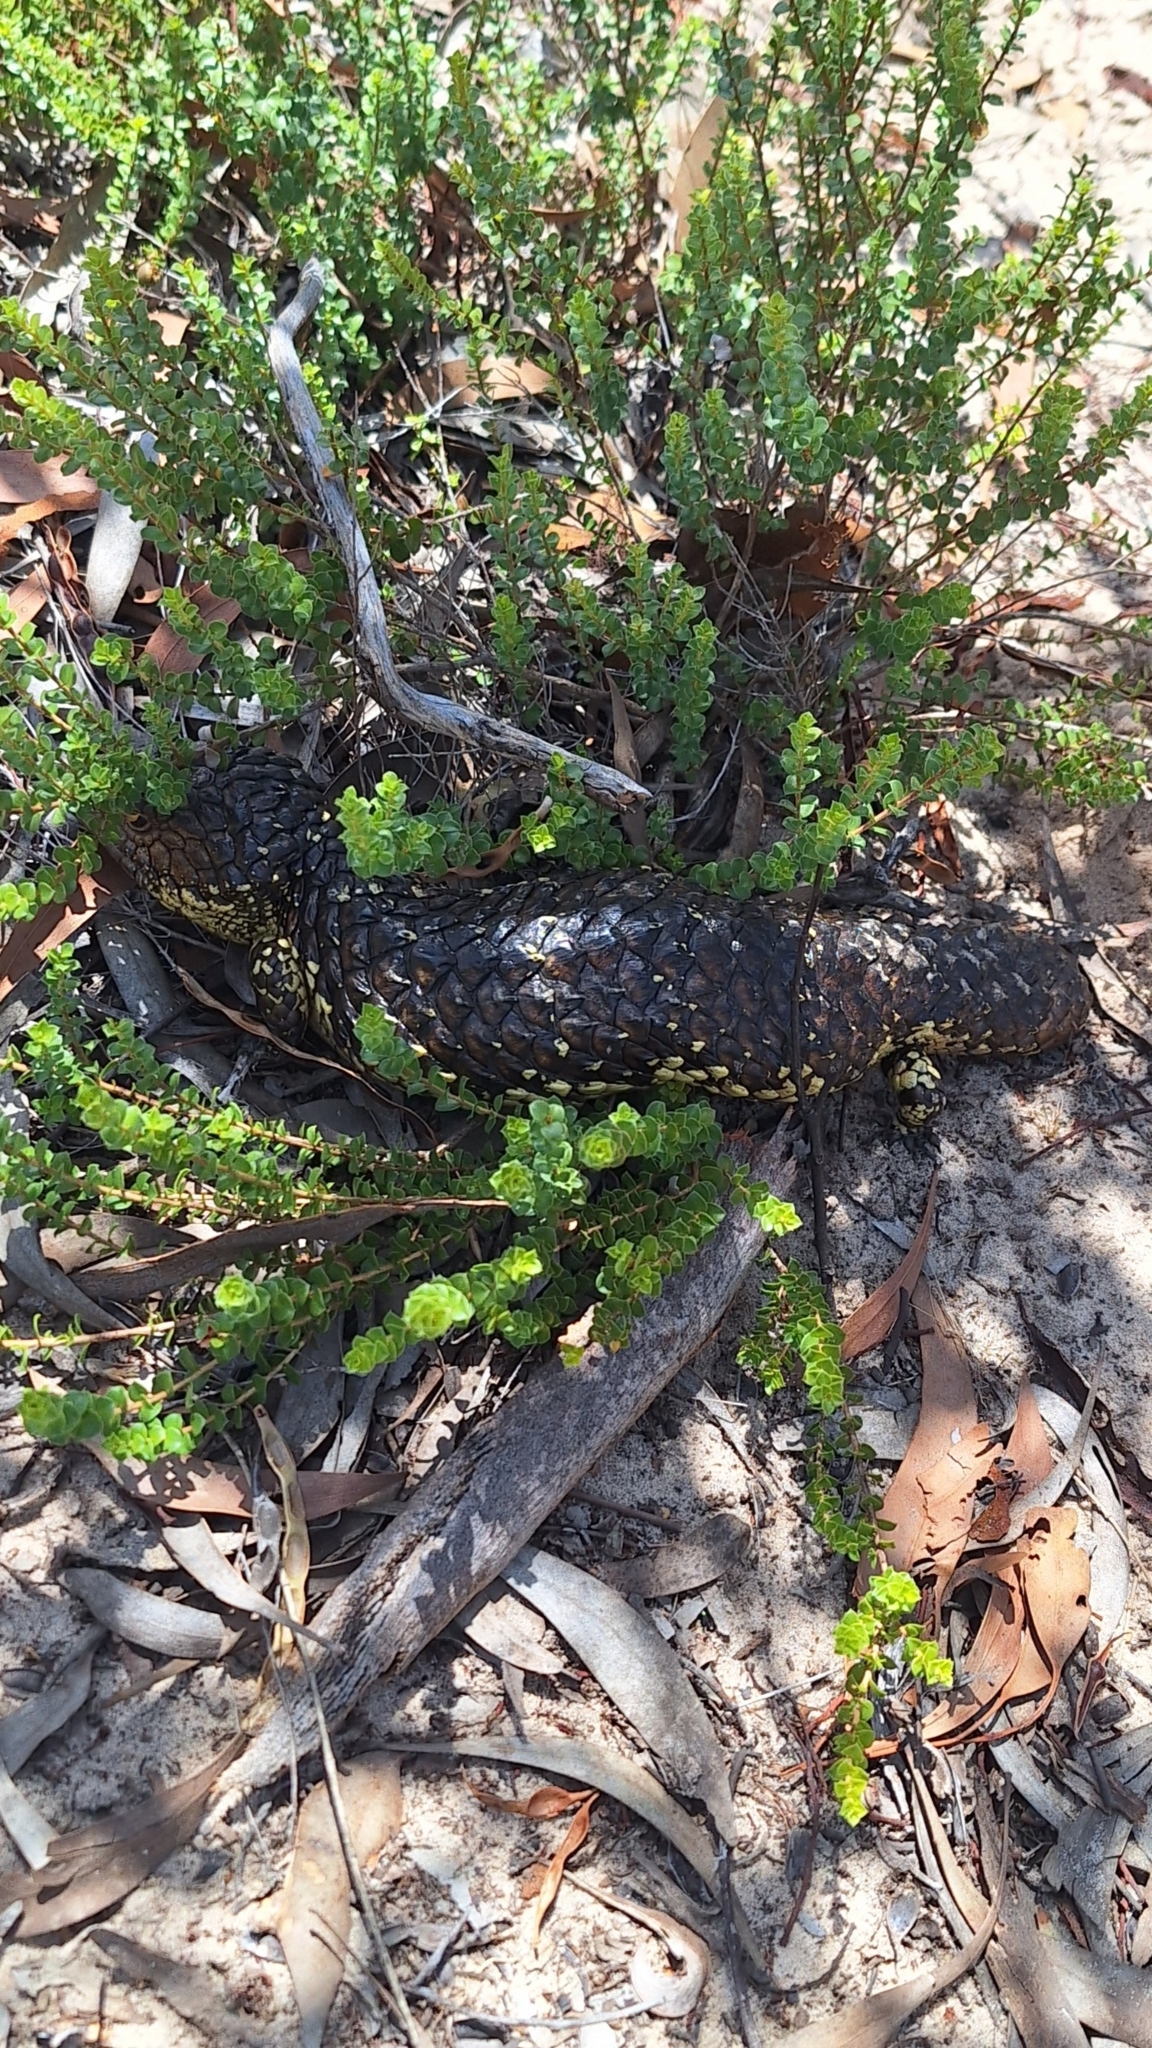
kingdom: Animalia
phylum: Chordata
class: Squamata
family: Scincidae
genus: Tiliqua
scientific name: Tiliqua rugosa
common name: Pinecone lizard
